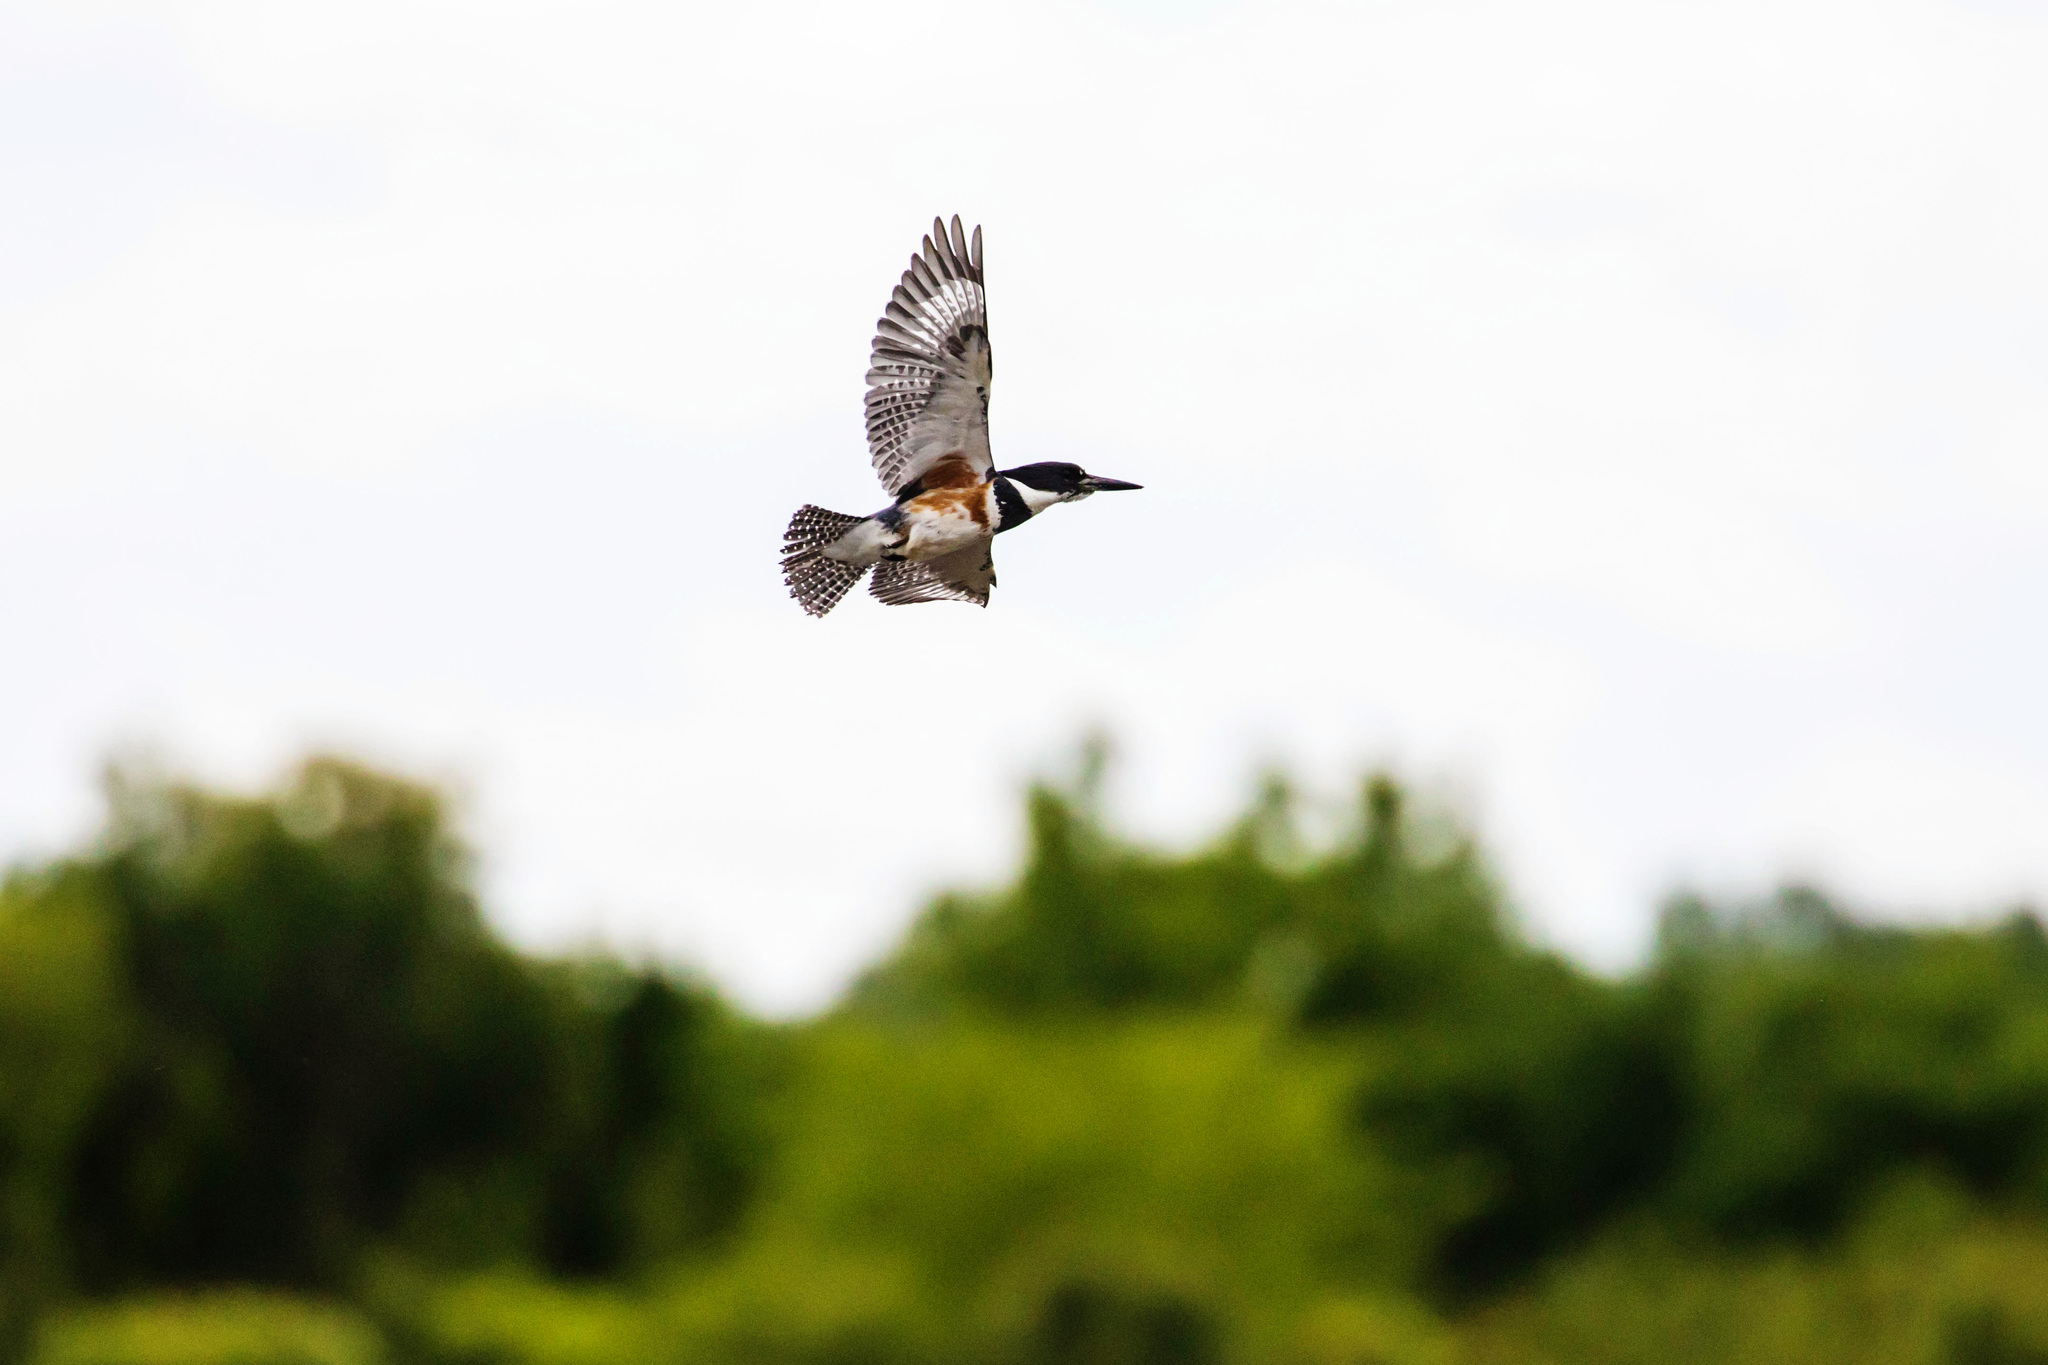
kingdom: Animalia
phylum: Chordata
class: Aves
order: Coraciiformes
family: Alcedinidae
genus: Megaceryle
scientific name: Megaceryle alcyon
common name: Belted kingfisher
